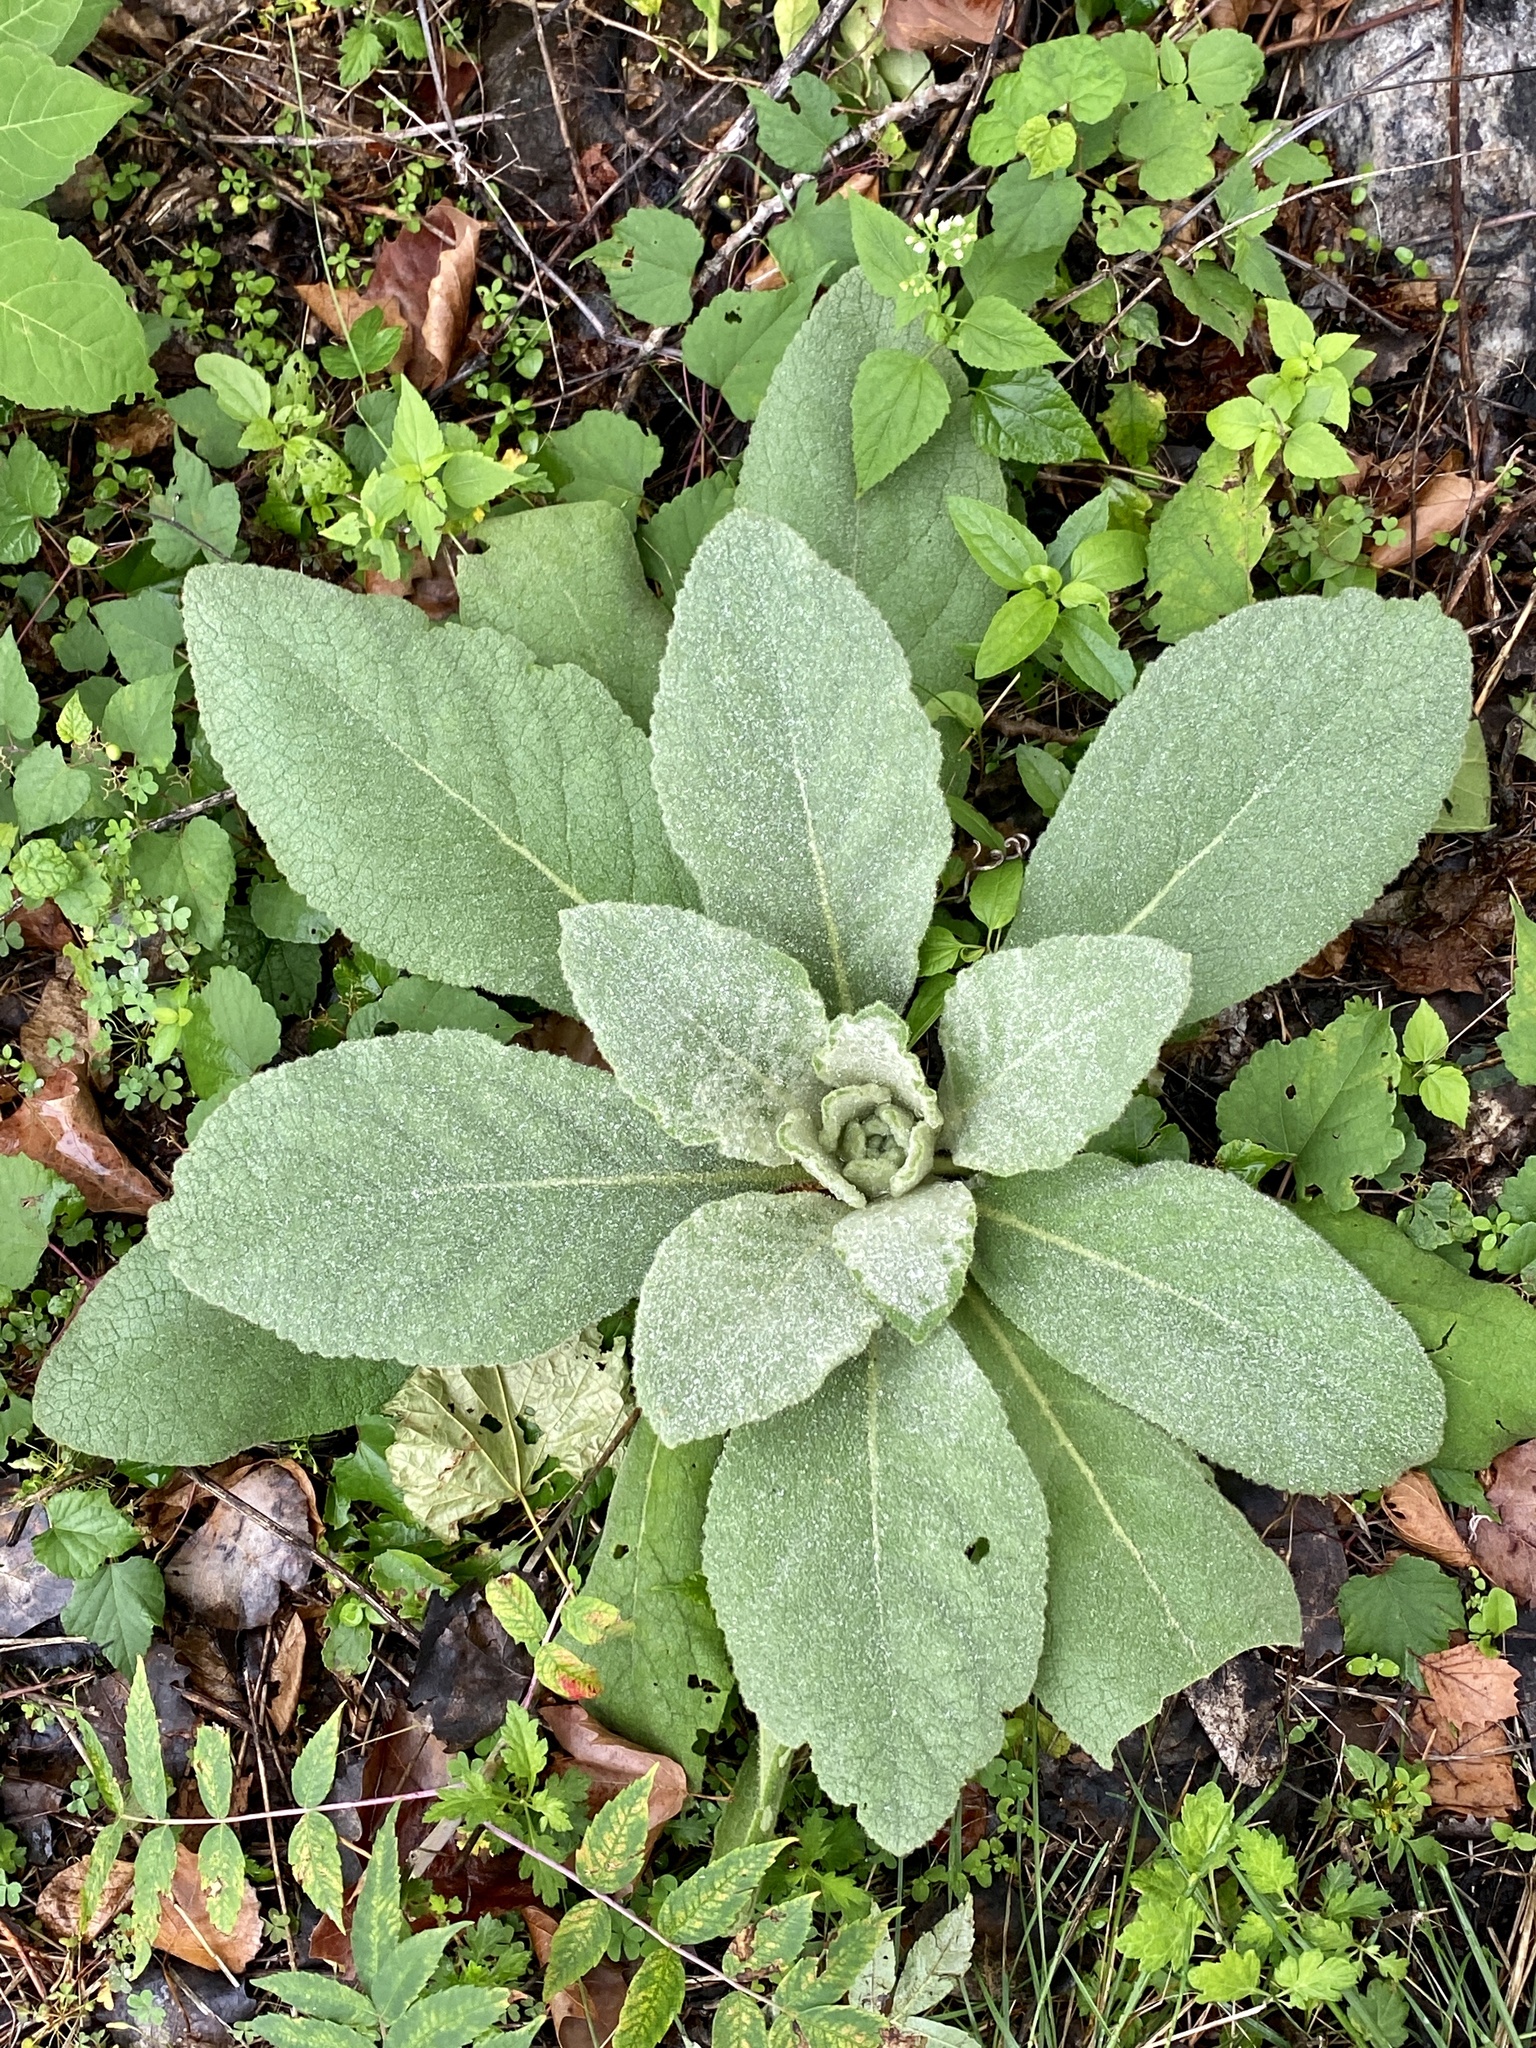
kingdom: Plantae
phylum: Tracheophyta
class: Magnoliopsida
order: Lamiales
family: Scrophulariaceae
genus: Verbascum
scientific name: Verbascum thapsus
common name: Common mullein
